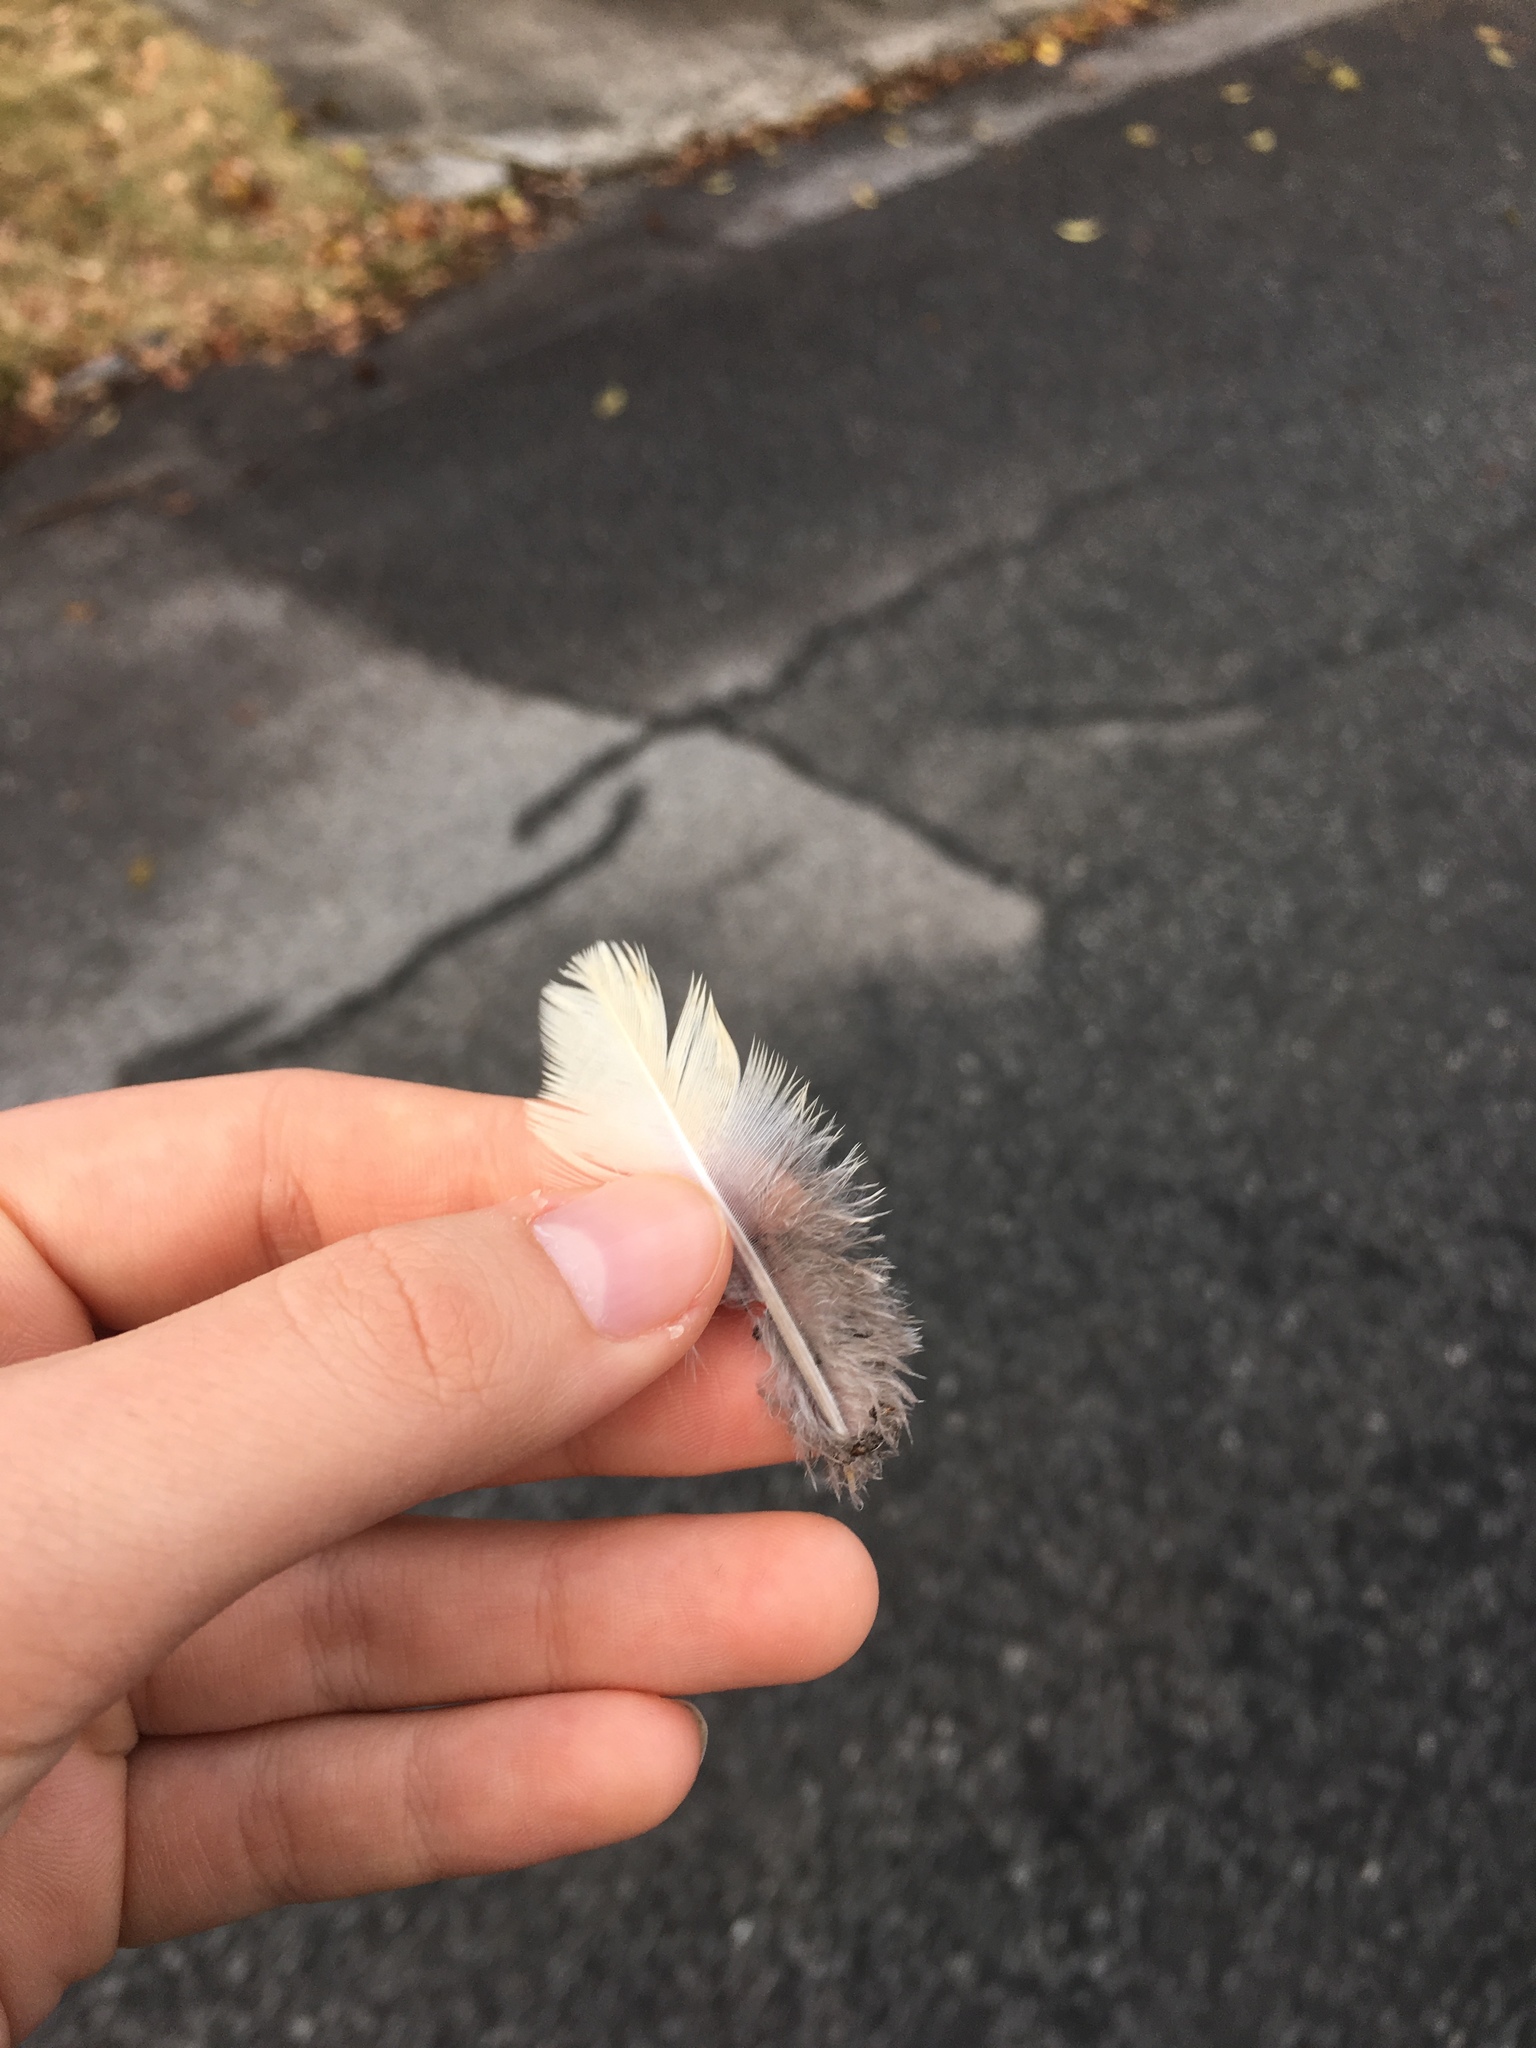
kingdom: Animalia
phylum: Chordata
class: Aves
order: Columbiformes
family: Columbidae
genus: Zenaida
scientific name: Zenaida macroura
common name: Mourning dove
